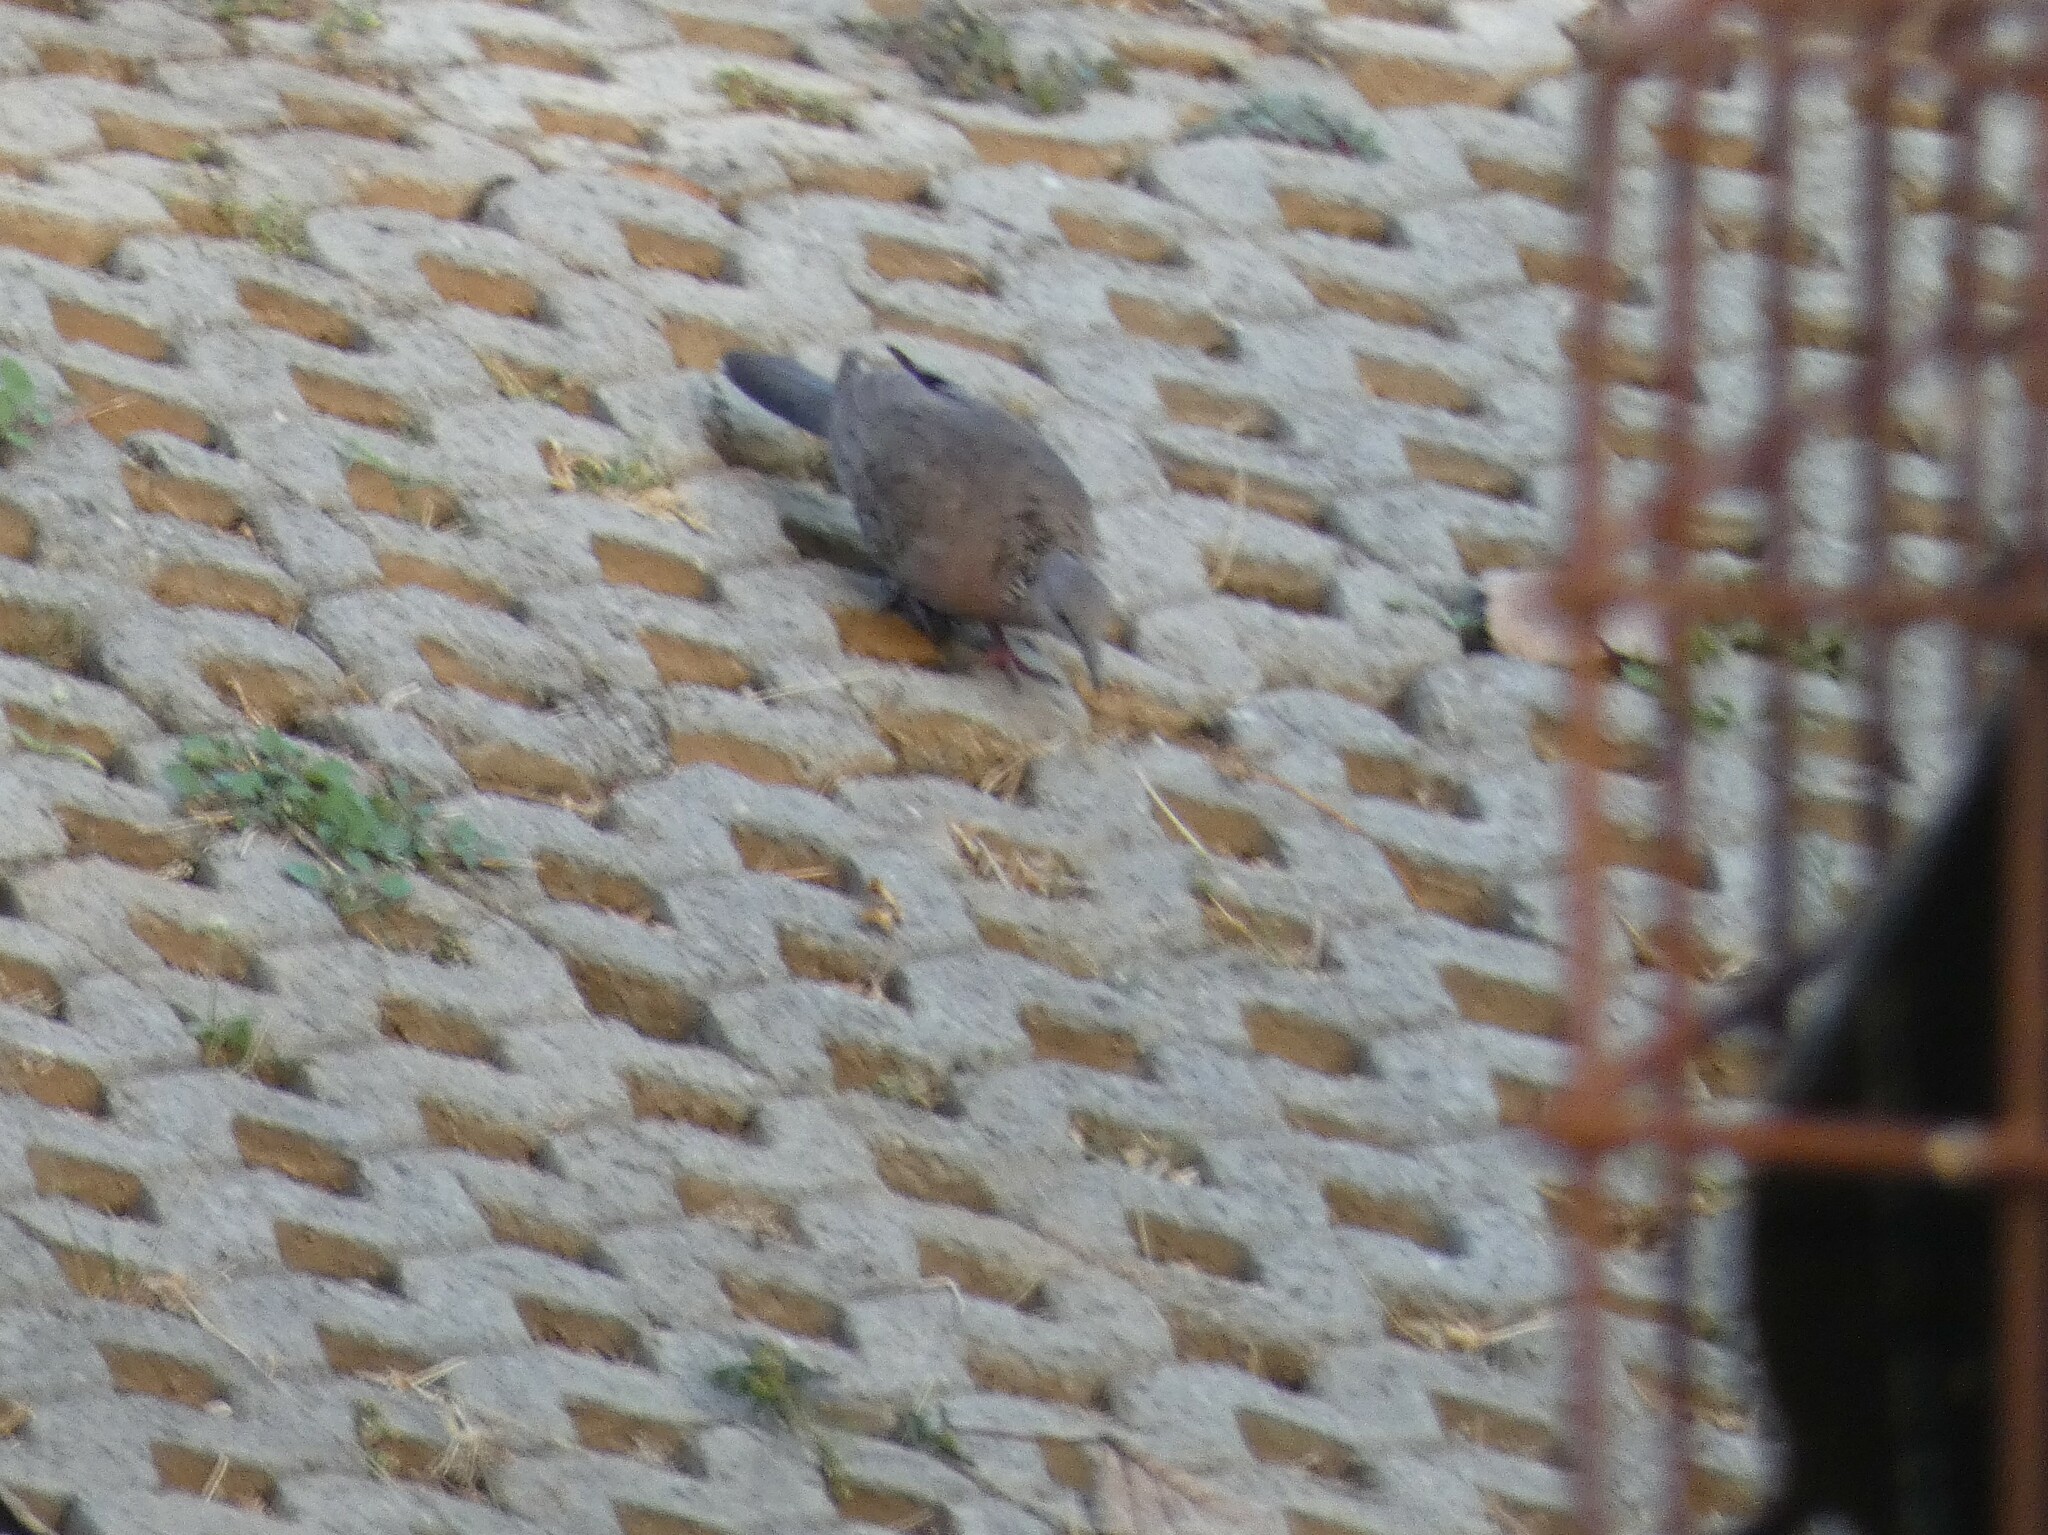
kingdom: Animalia
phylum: Chordata
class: Aves
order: Columbiformes
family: Columbidae
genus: Spilopelia
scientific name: Spilopelia chinensis
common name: Spotted dove
